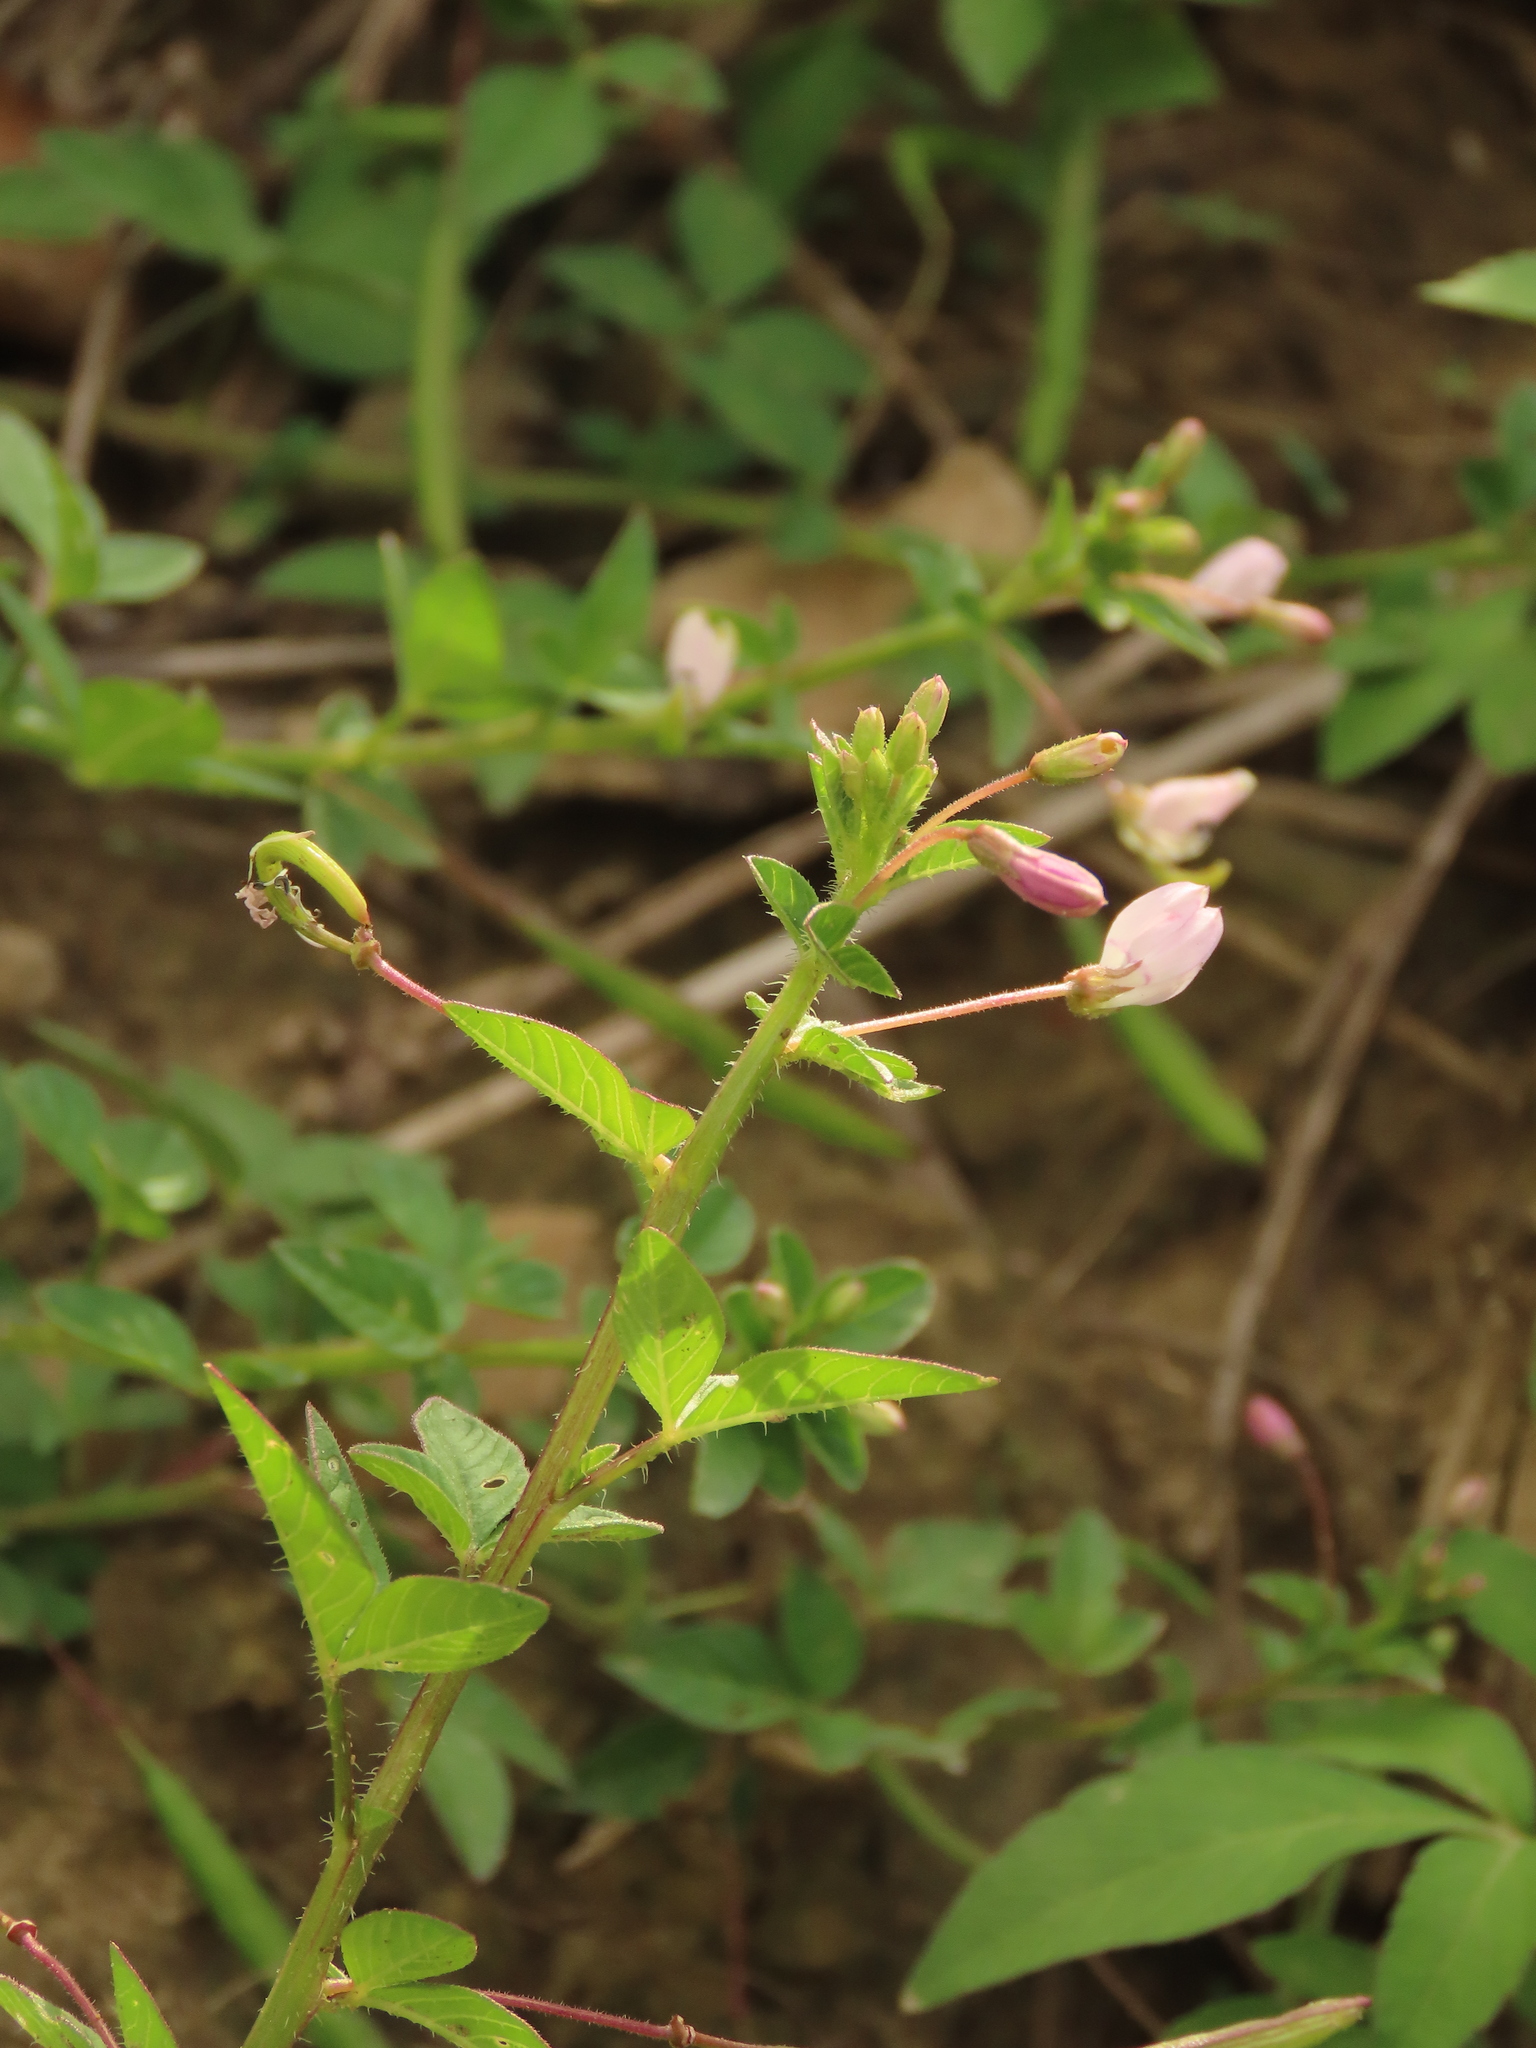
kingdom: Plantae
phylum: Tracheophyta
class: Magnoliopsida
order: Brassicales
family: Cleomaceae
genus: Sieruela
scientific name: Sieruela rutidosperma
